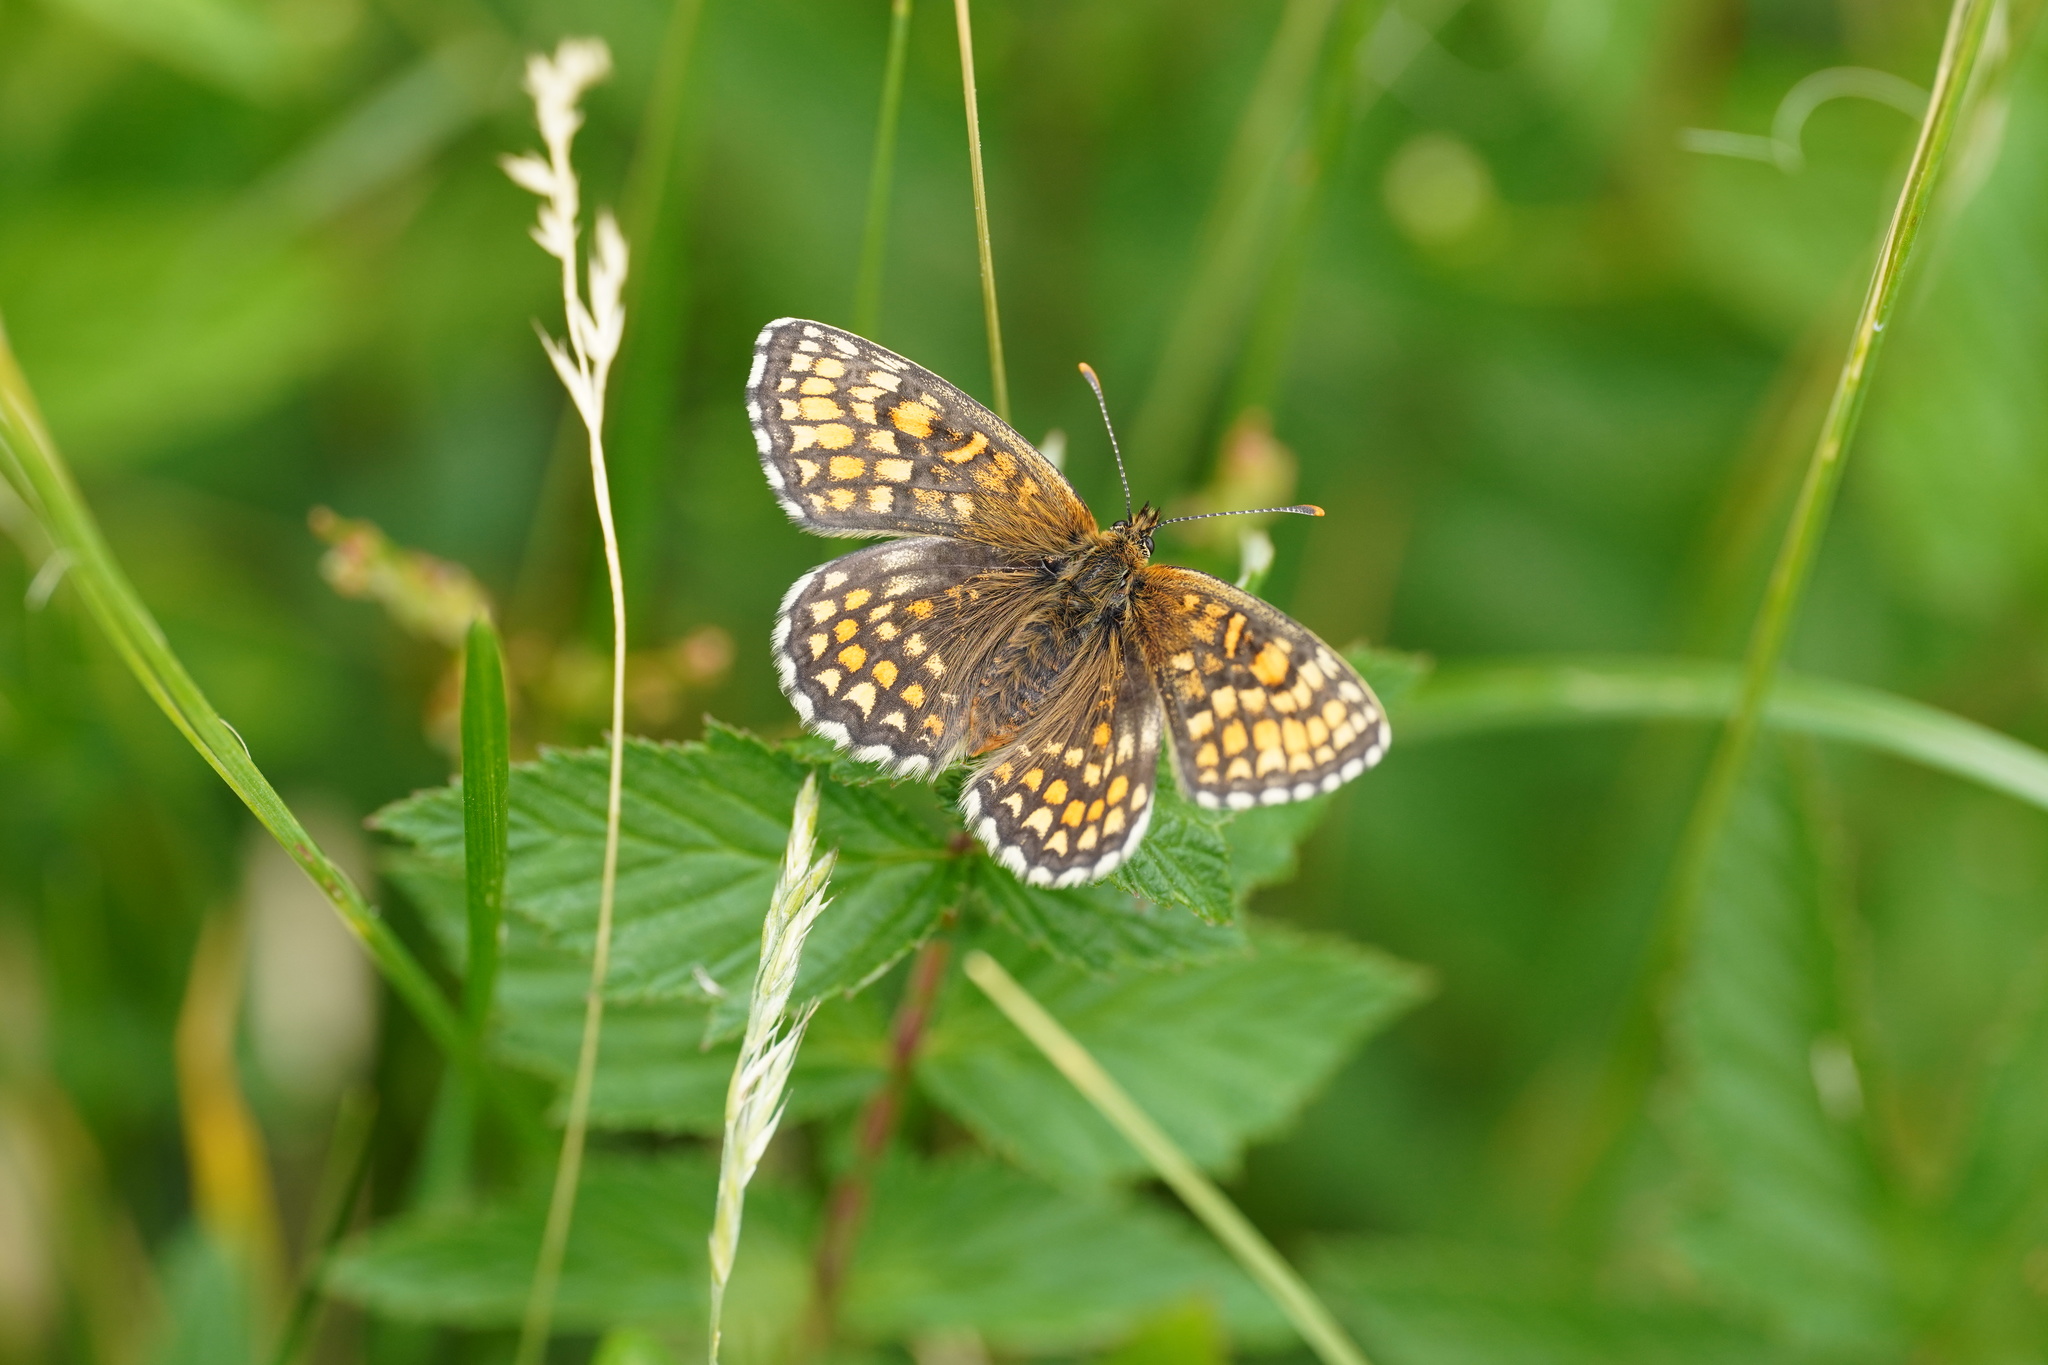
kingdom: Animalia
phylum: Arthropoda
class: Insecta
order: Lepidoptera
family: Nymphalidae
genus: Melitaea
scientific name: Melitaea athalia
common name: Heath fritillary
